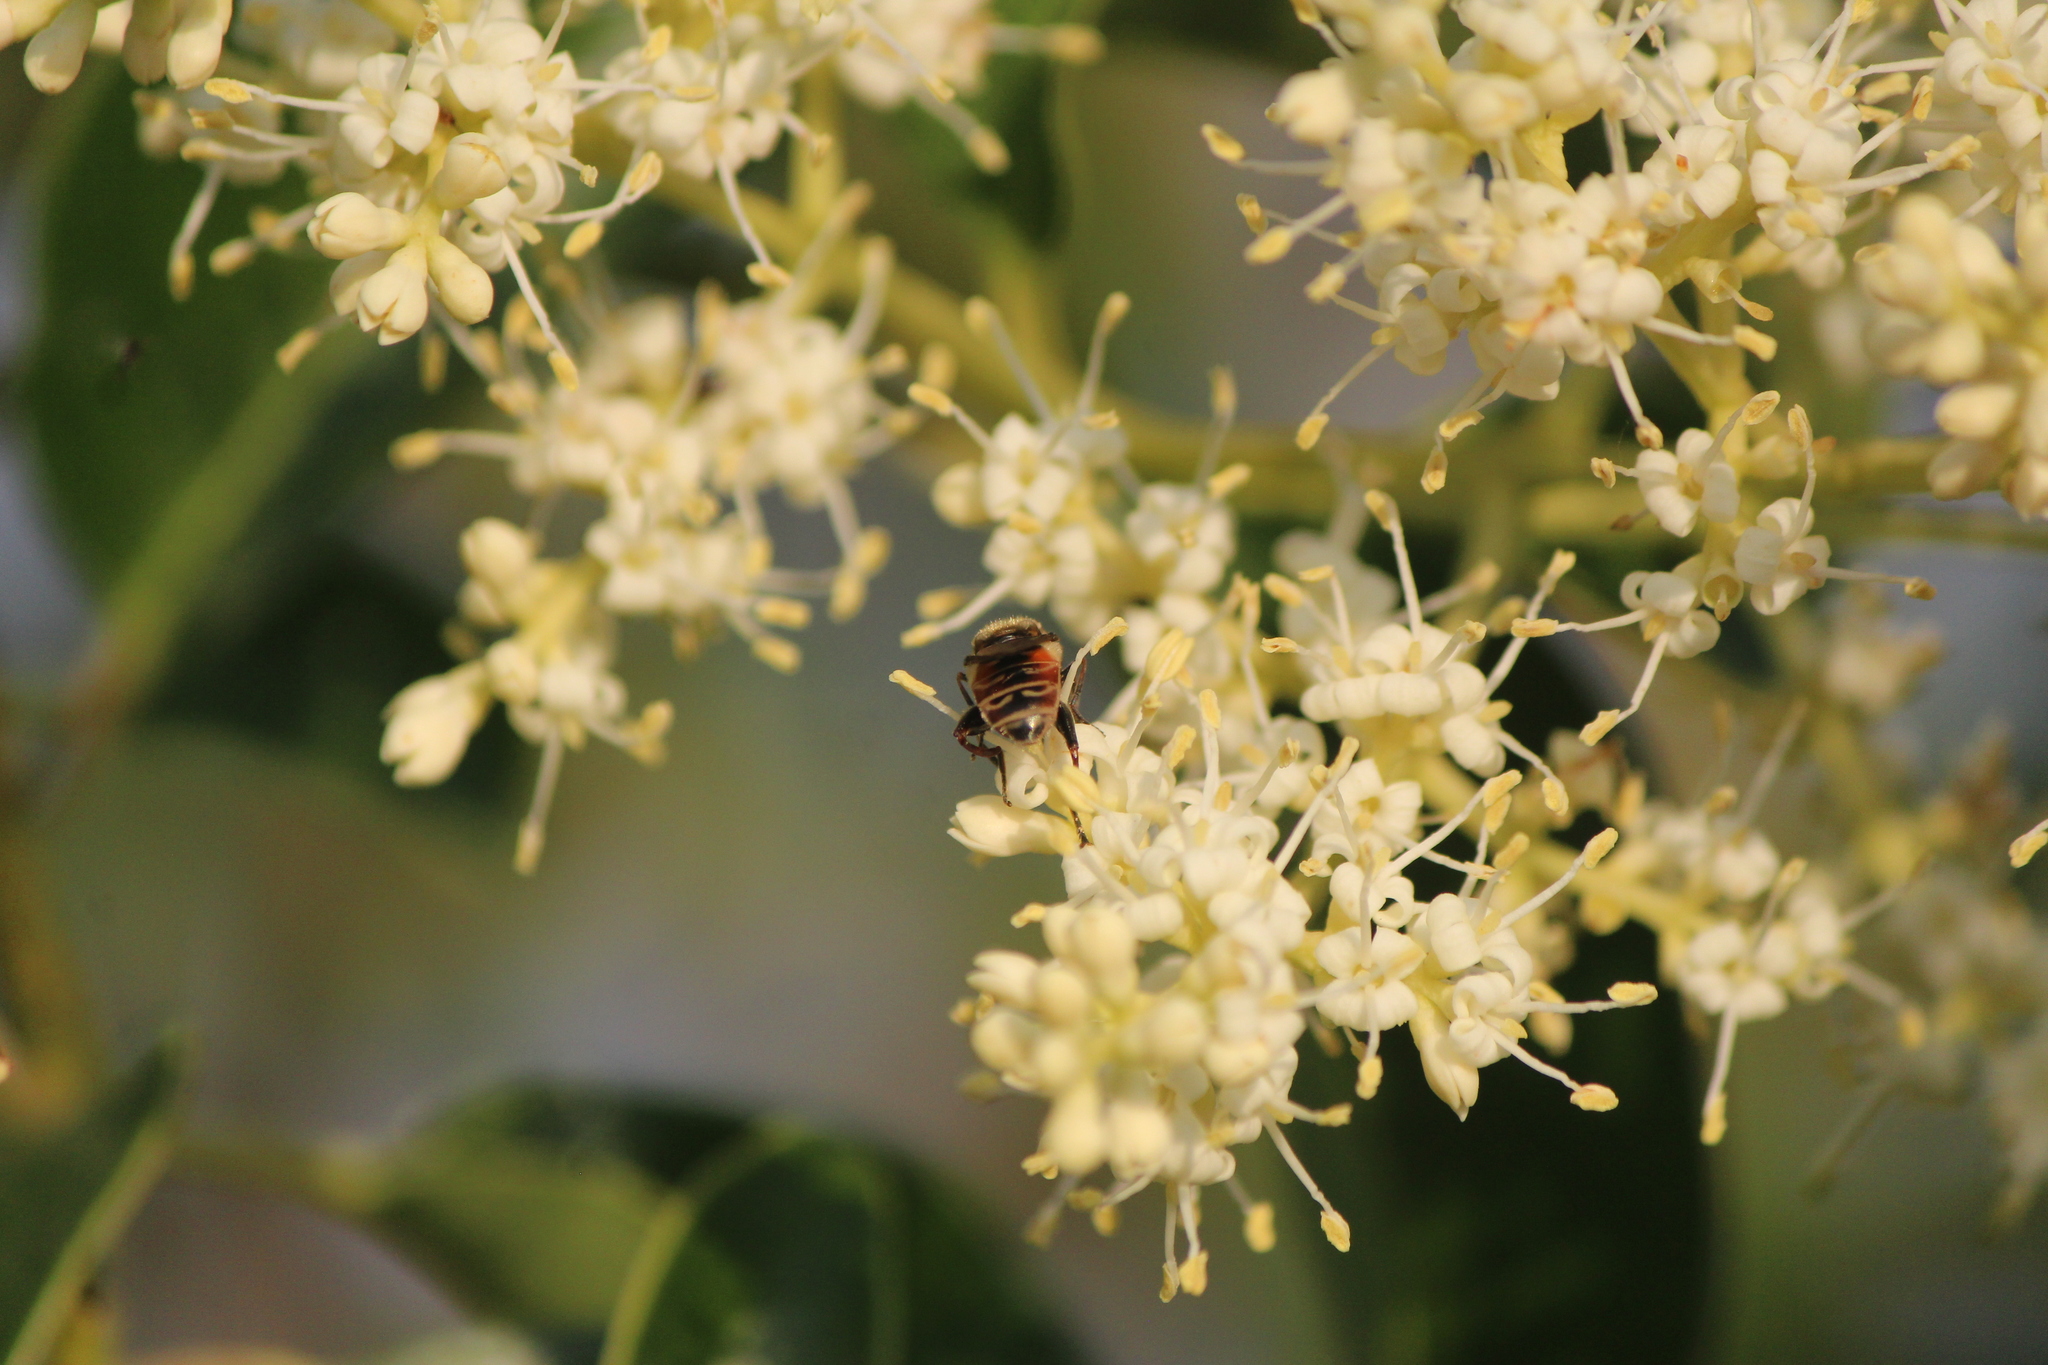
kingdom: Animalia
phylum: Arthropoda
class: Insecta
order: Diptera
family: Syrphidae
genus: Asemosyrphus
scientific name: Asemosyrphus
